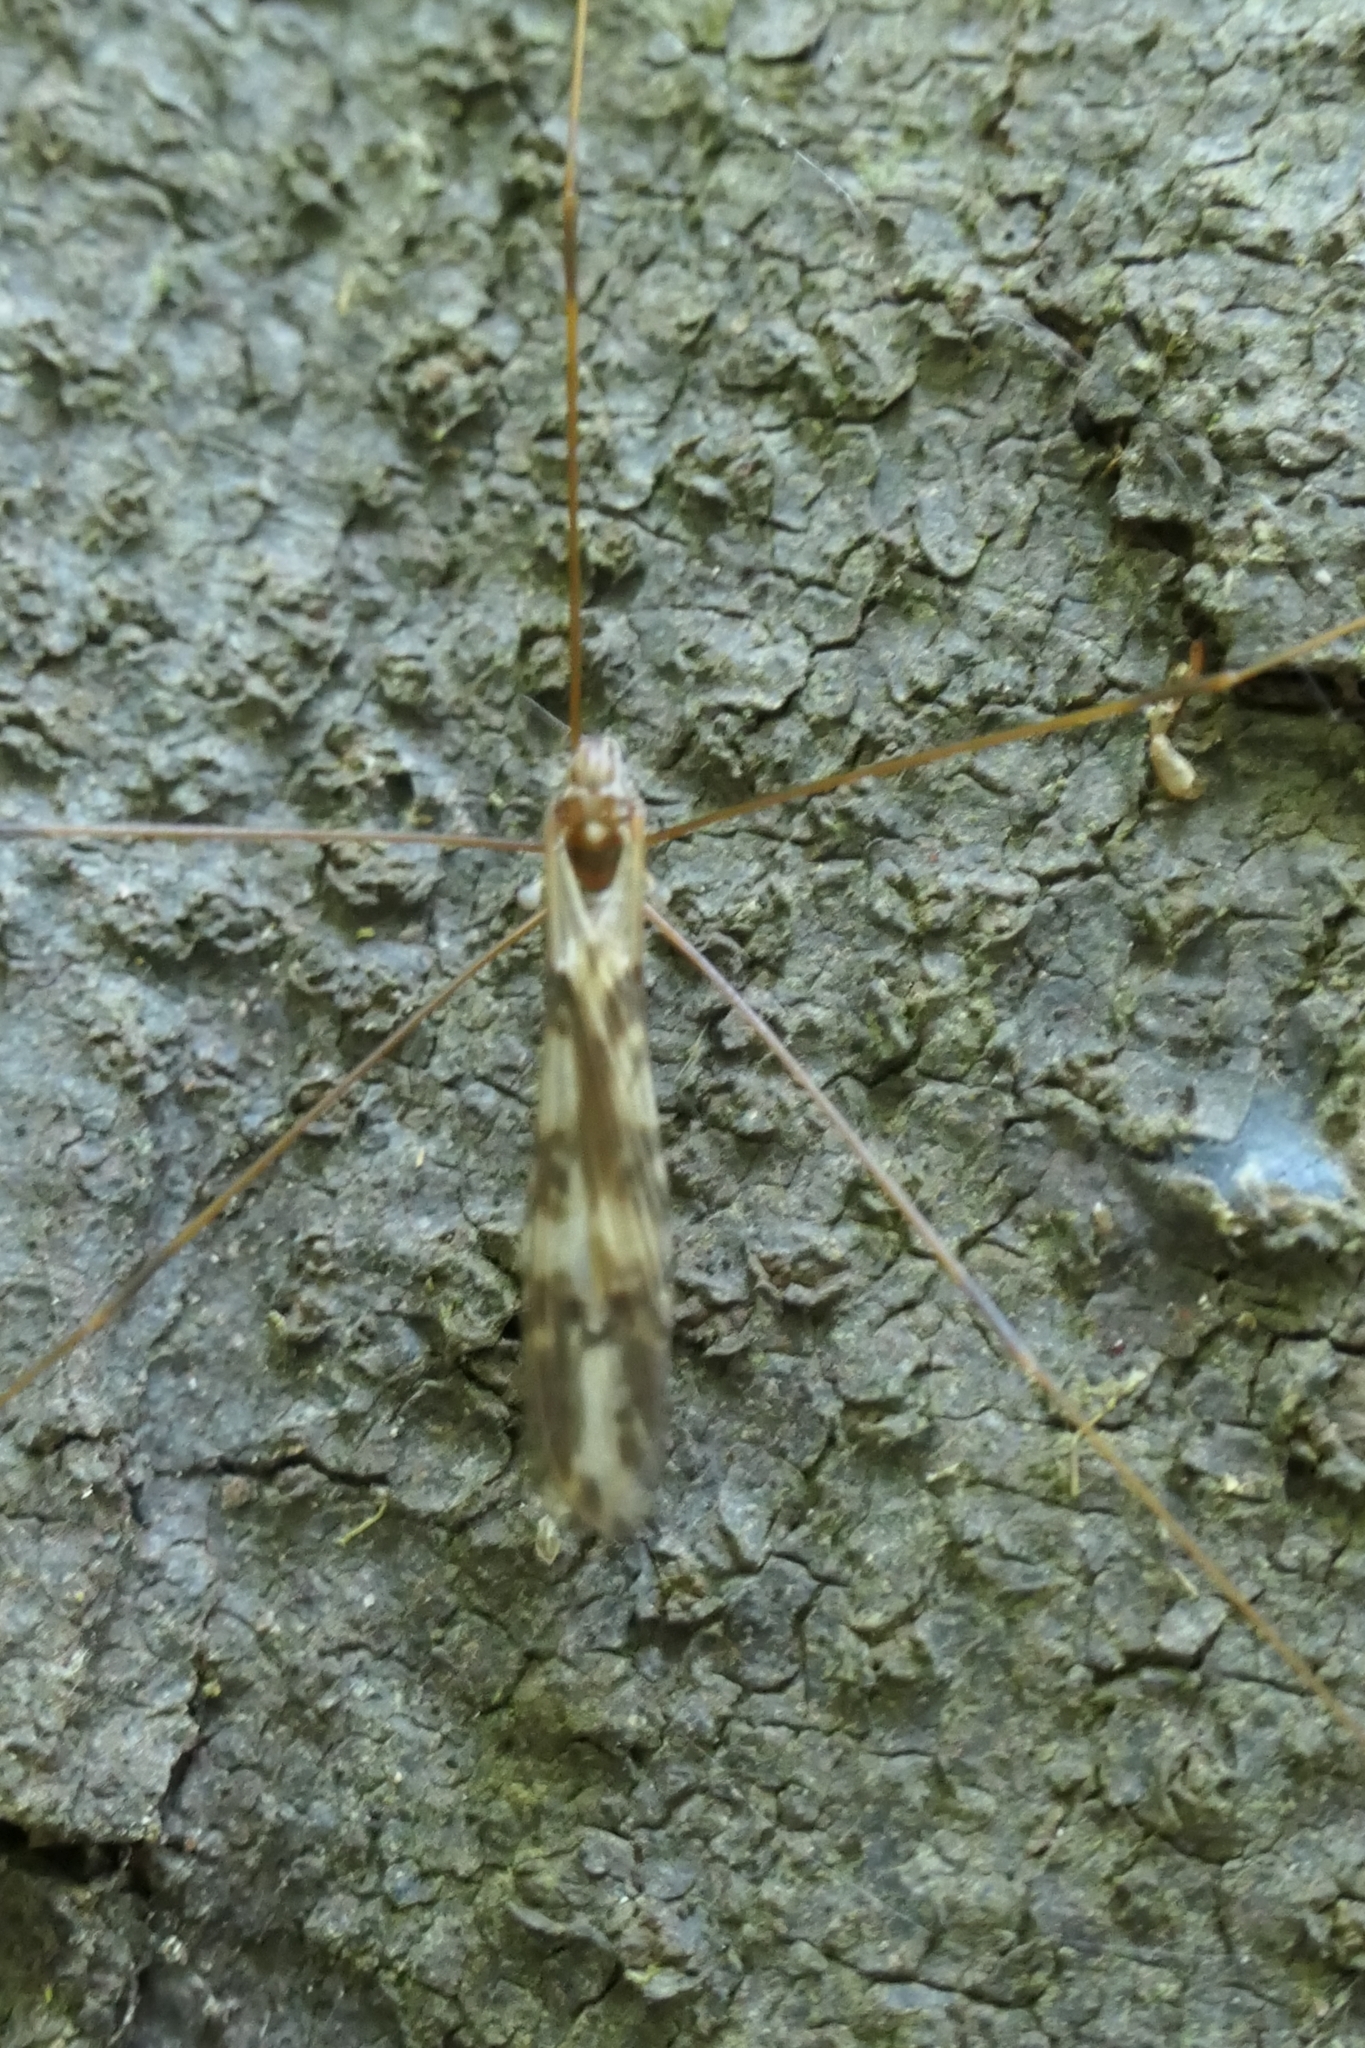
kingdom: Animalia
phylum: Arthropoda
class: Insecta
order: Diptera
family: Limoniidae
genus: Discobola
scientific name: Discobola dohrni
